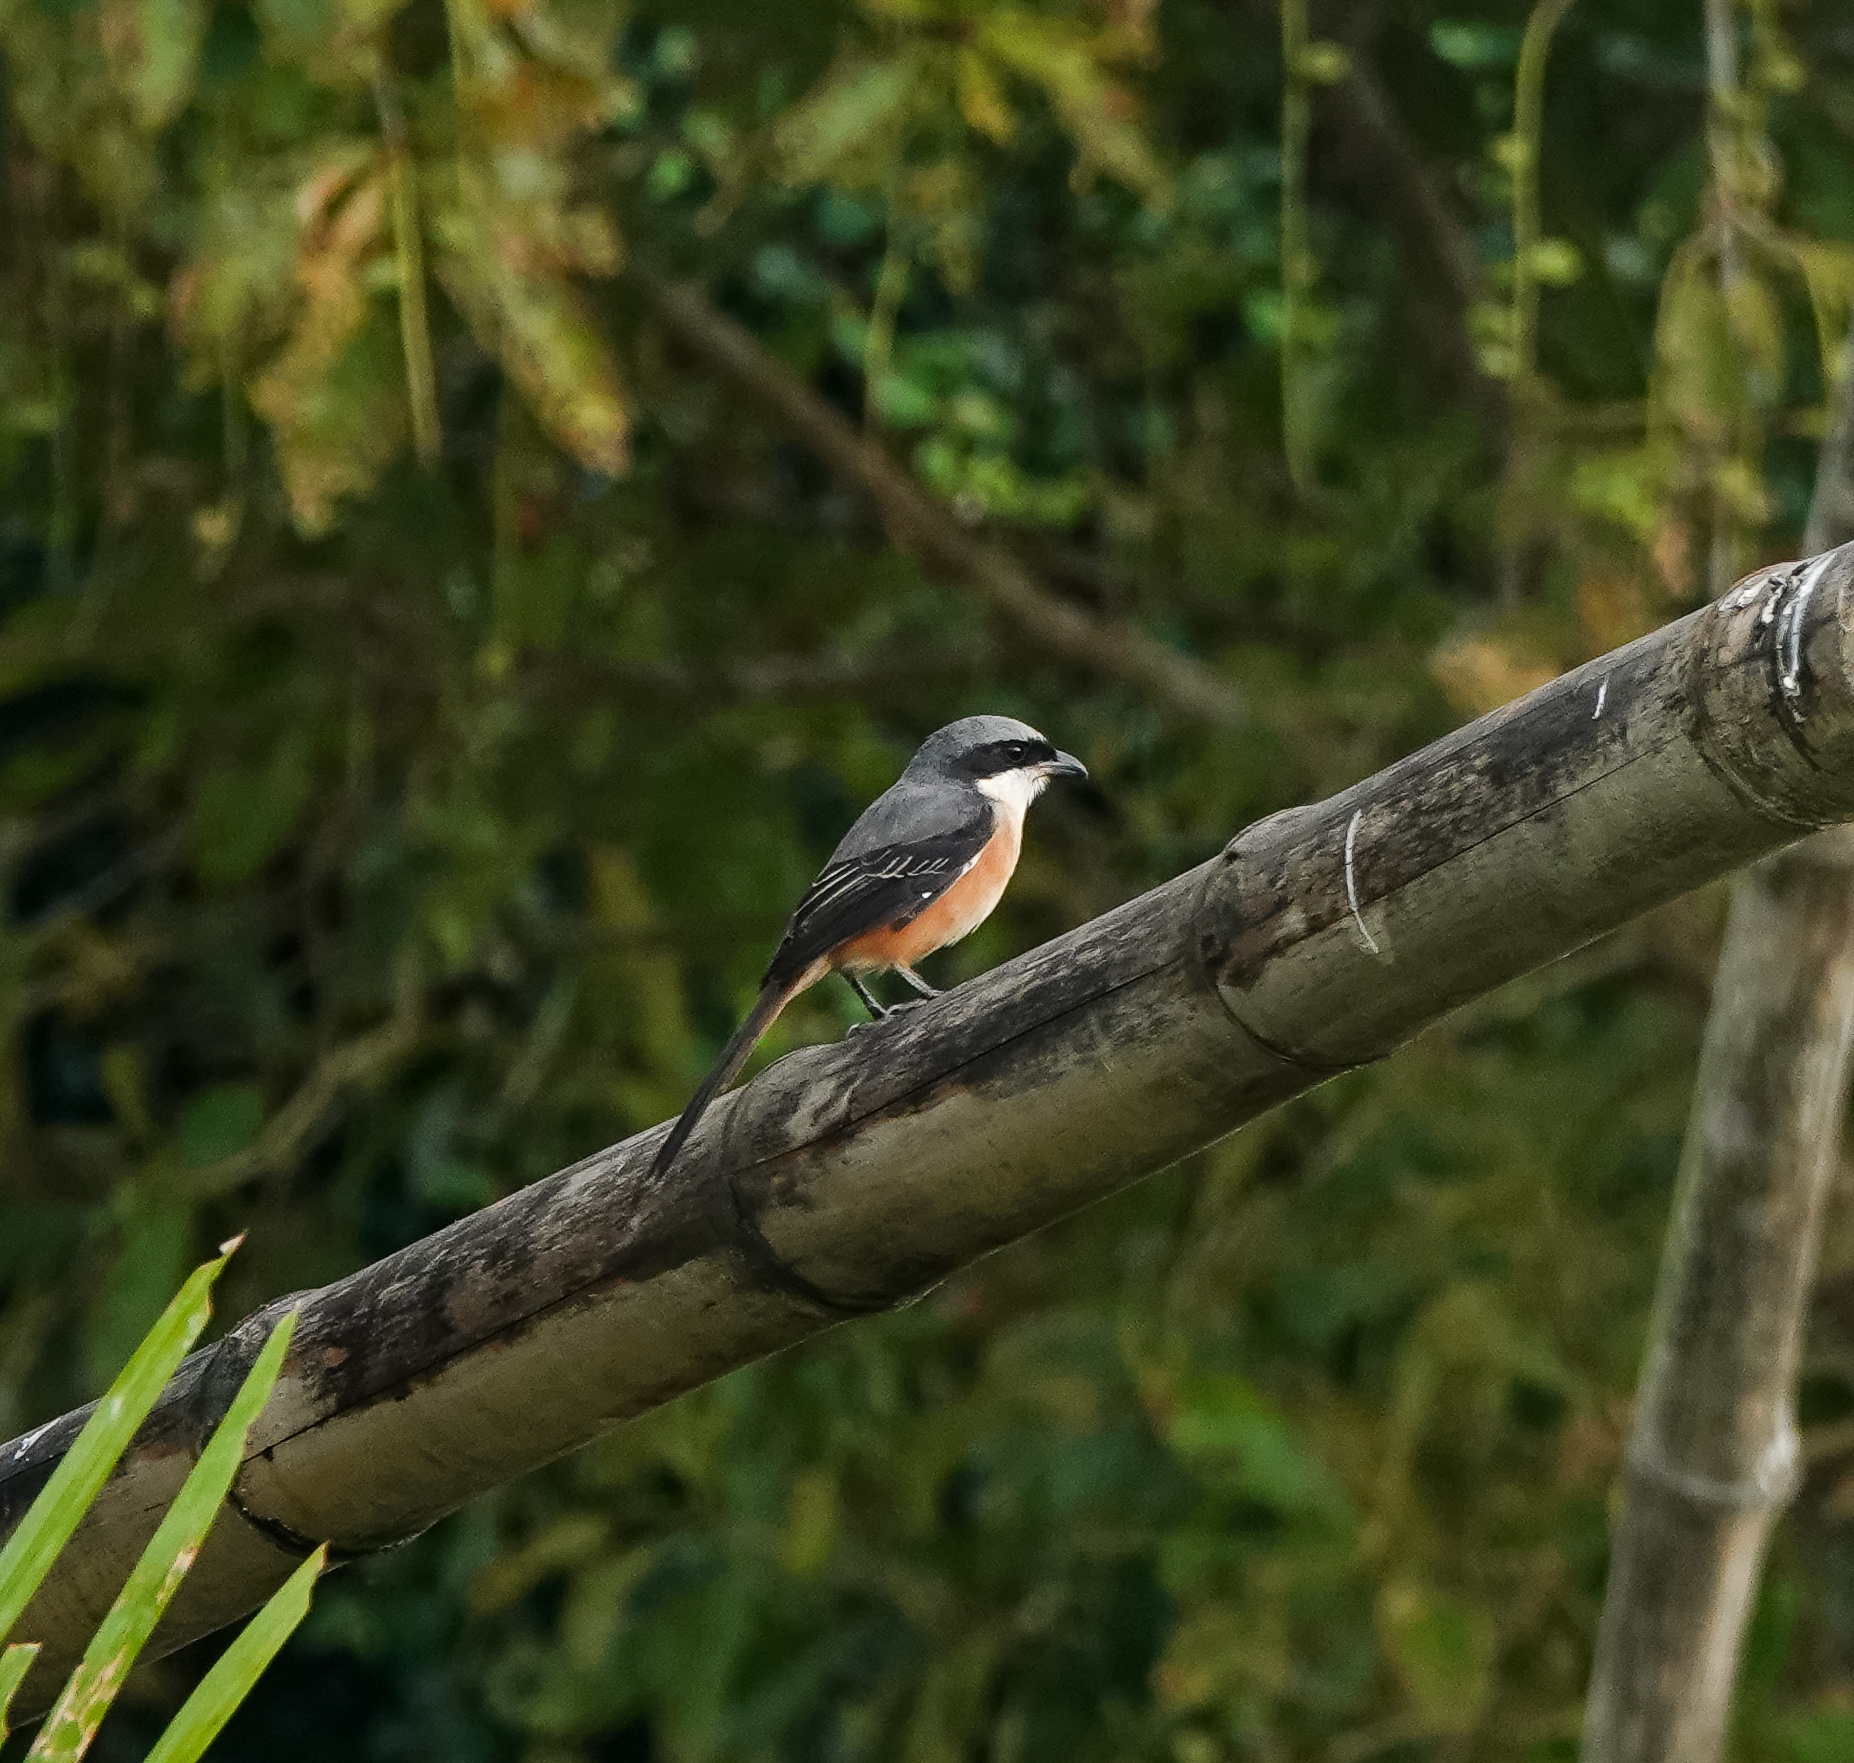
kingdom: Animalia
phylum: Chordata
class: Aves
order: Passeriformes
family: Laniidae
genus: Lanius
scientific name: Lanius tephronotus
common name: Grey-backed shrike
